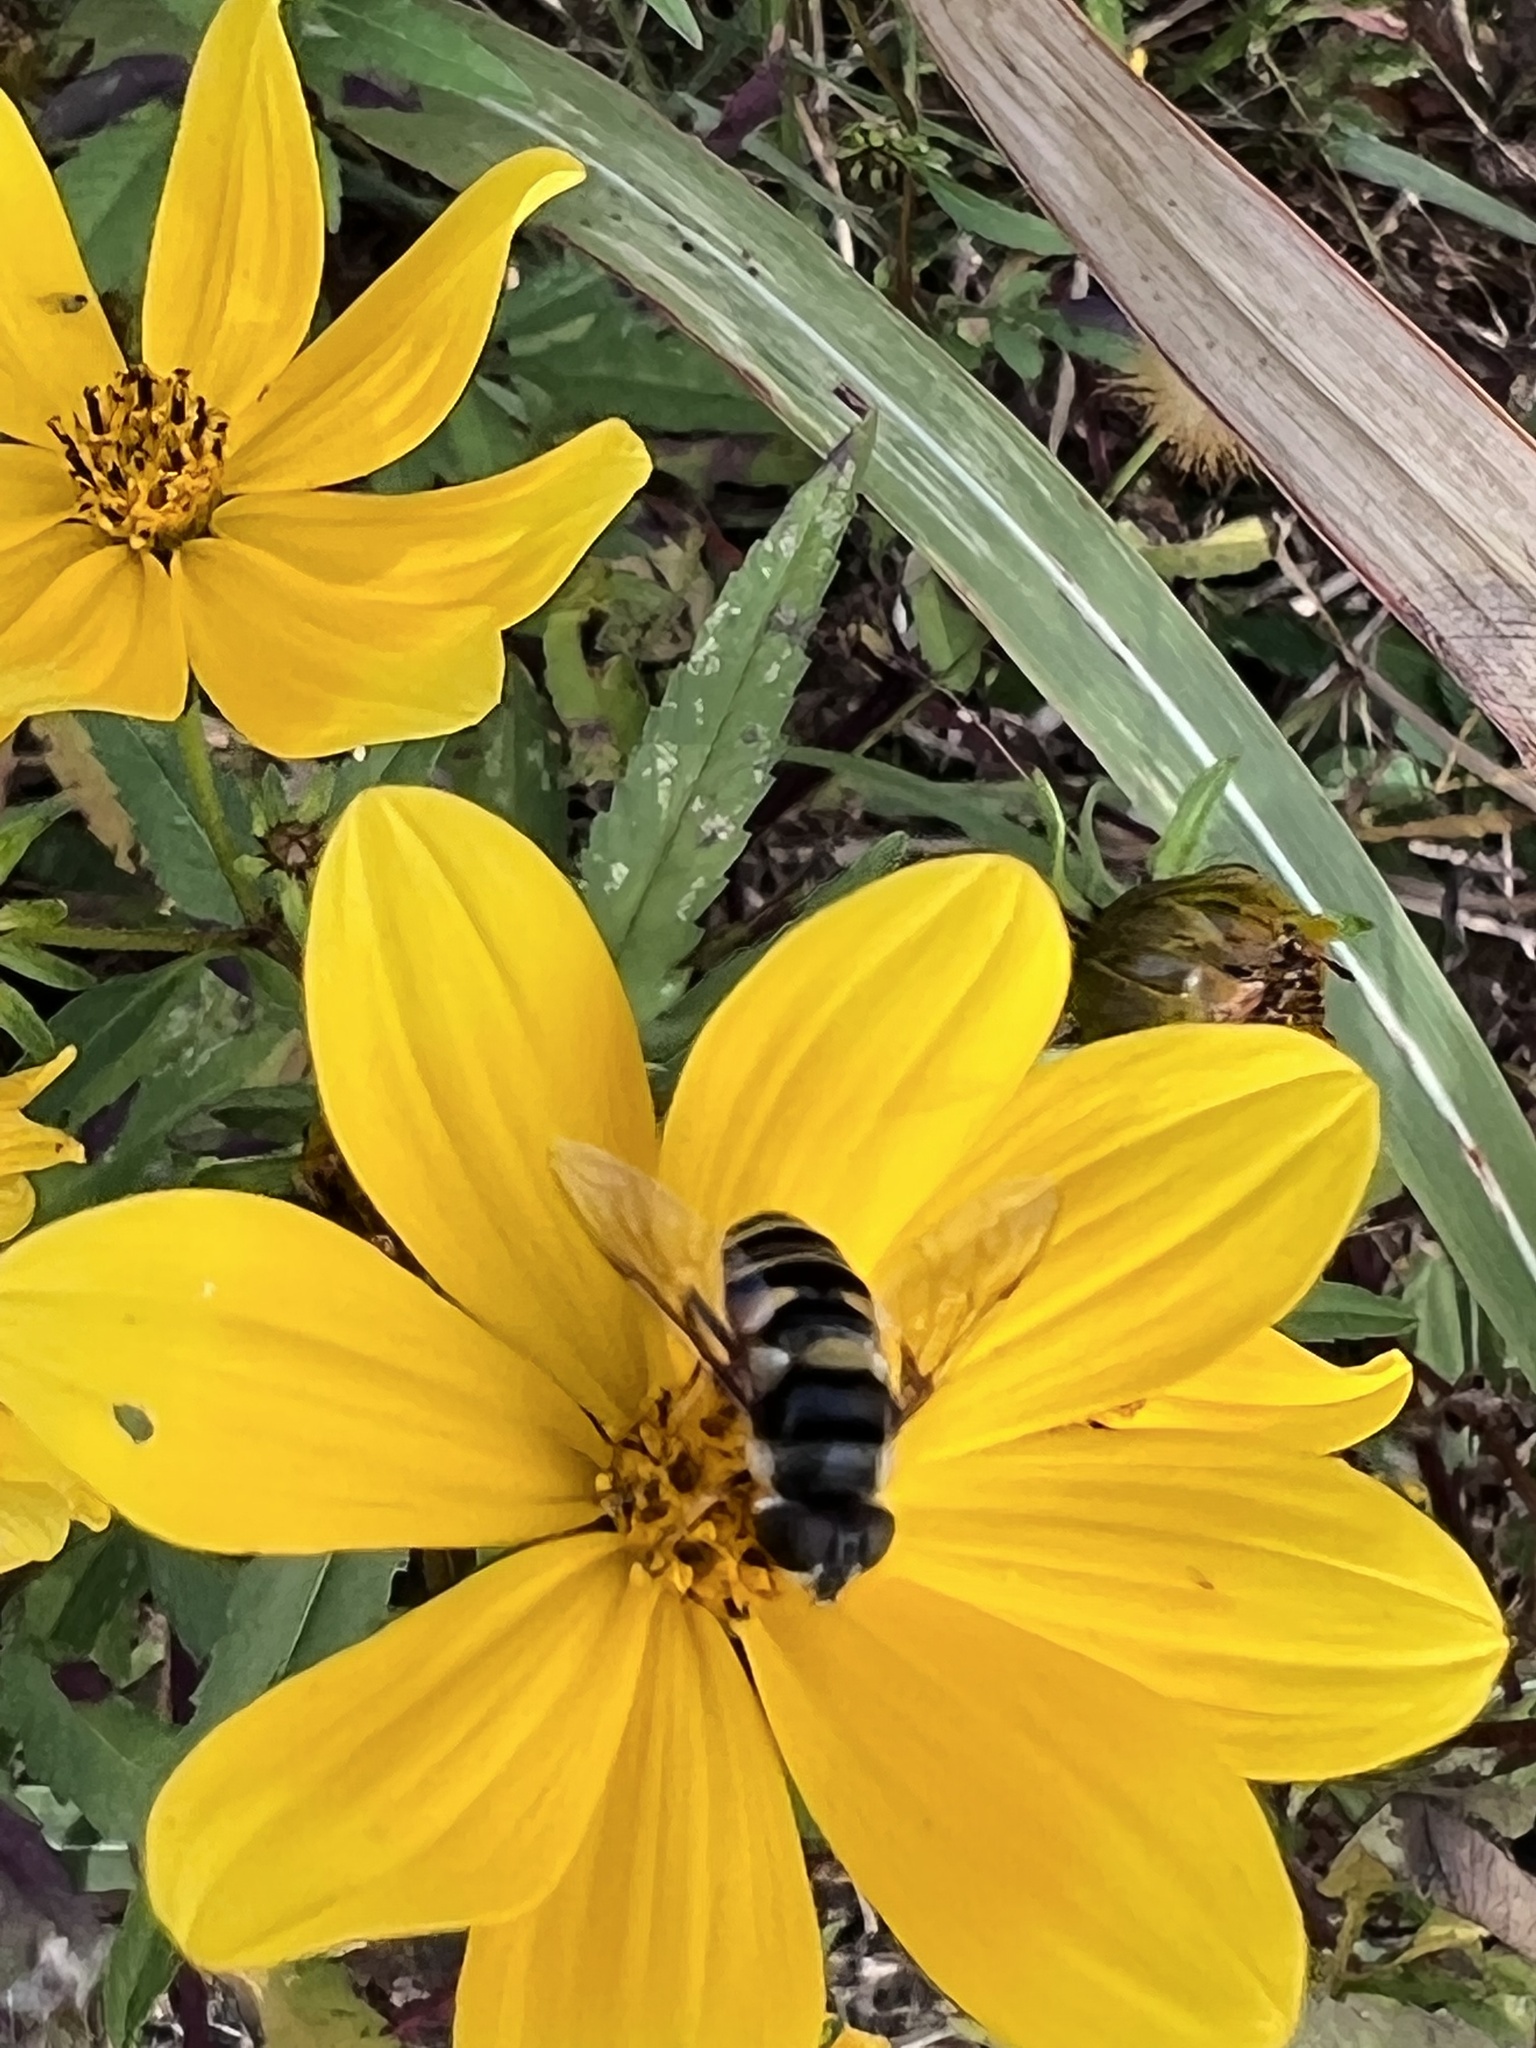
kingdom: Animalia
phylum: Arthropoda
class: Insecta
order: Diptera
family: Syrphidae
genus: Eristalis
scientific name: Eristalis transversa
